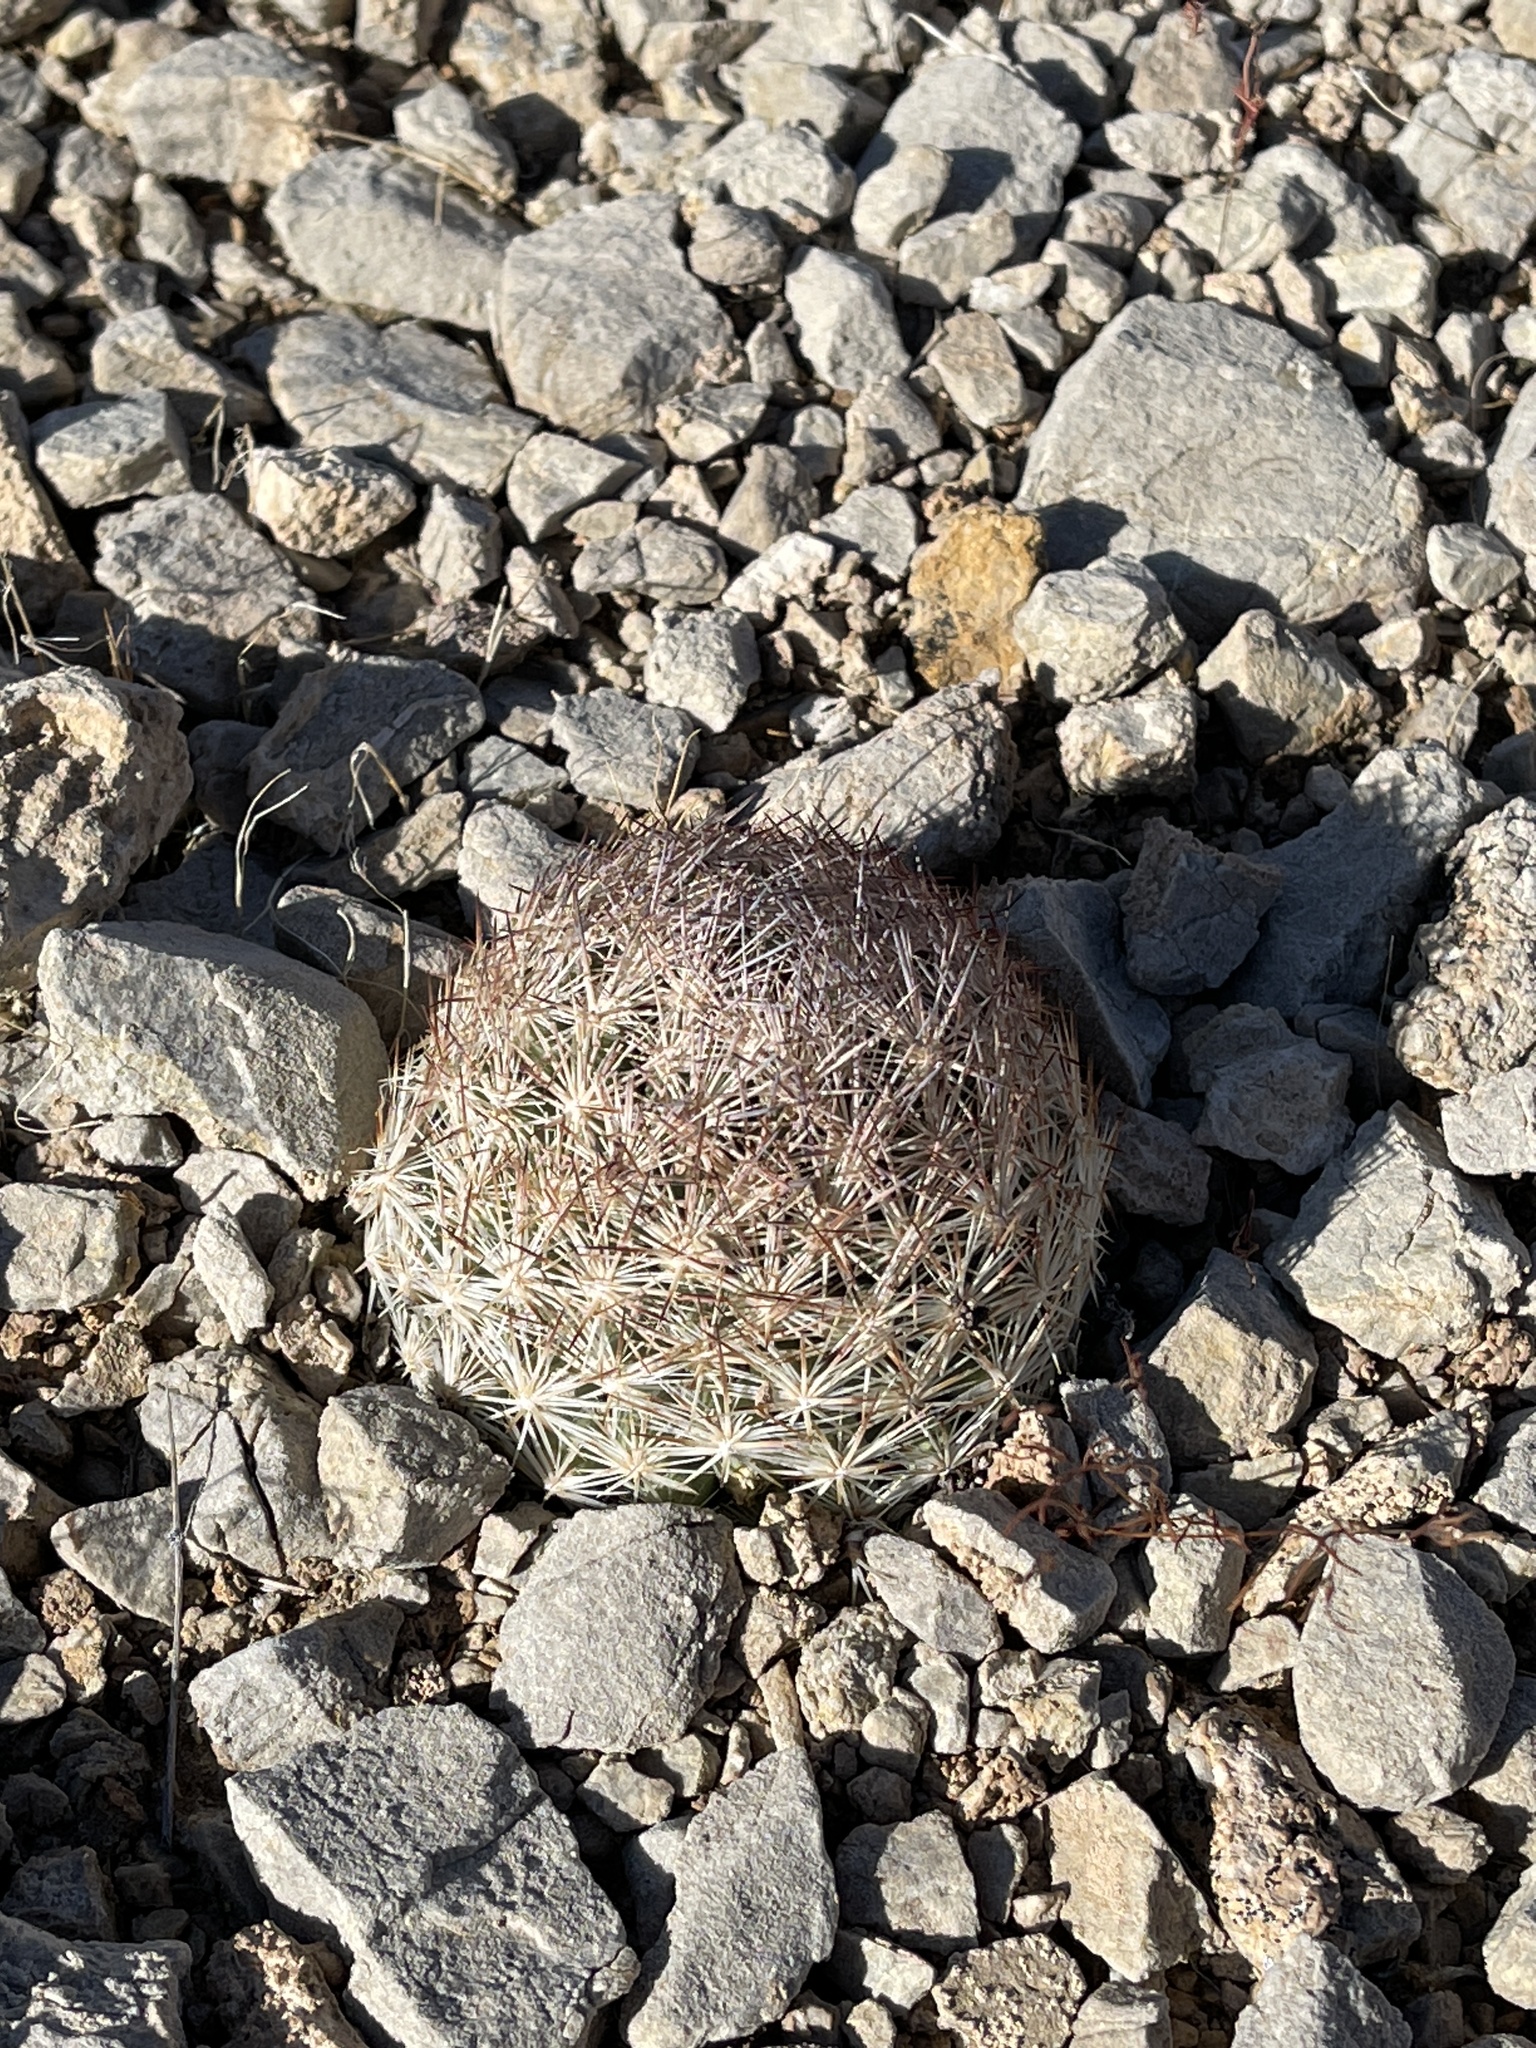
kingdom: Plantae
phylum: Tracheophyta
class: Magnoliopsida
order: Caryophyllales
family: Cactaceae
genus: Pelecyphora
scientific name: Pelecyphora dasyacantha
